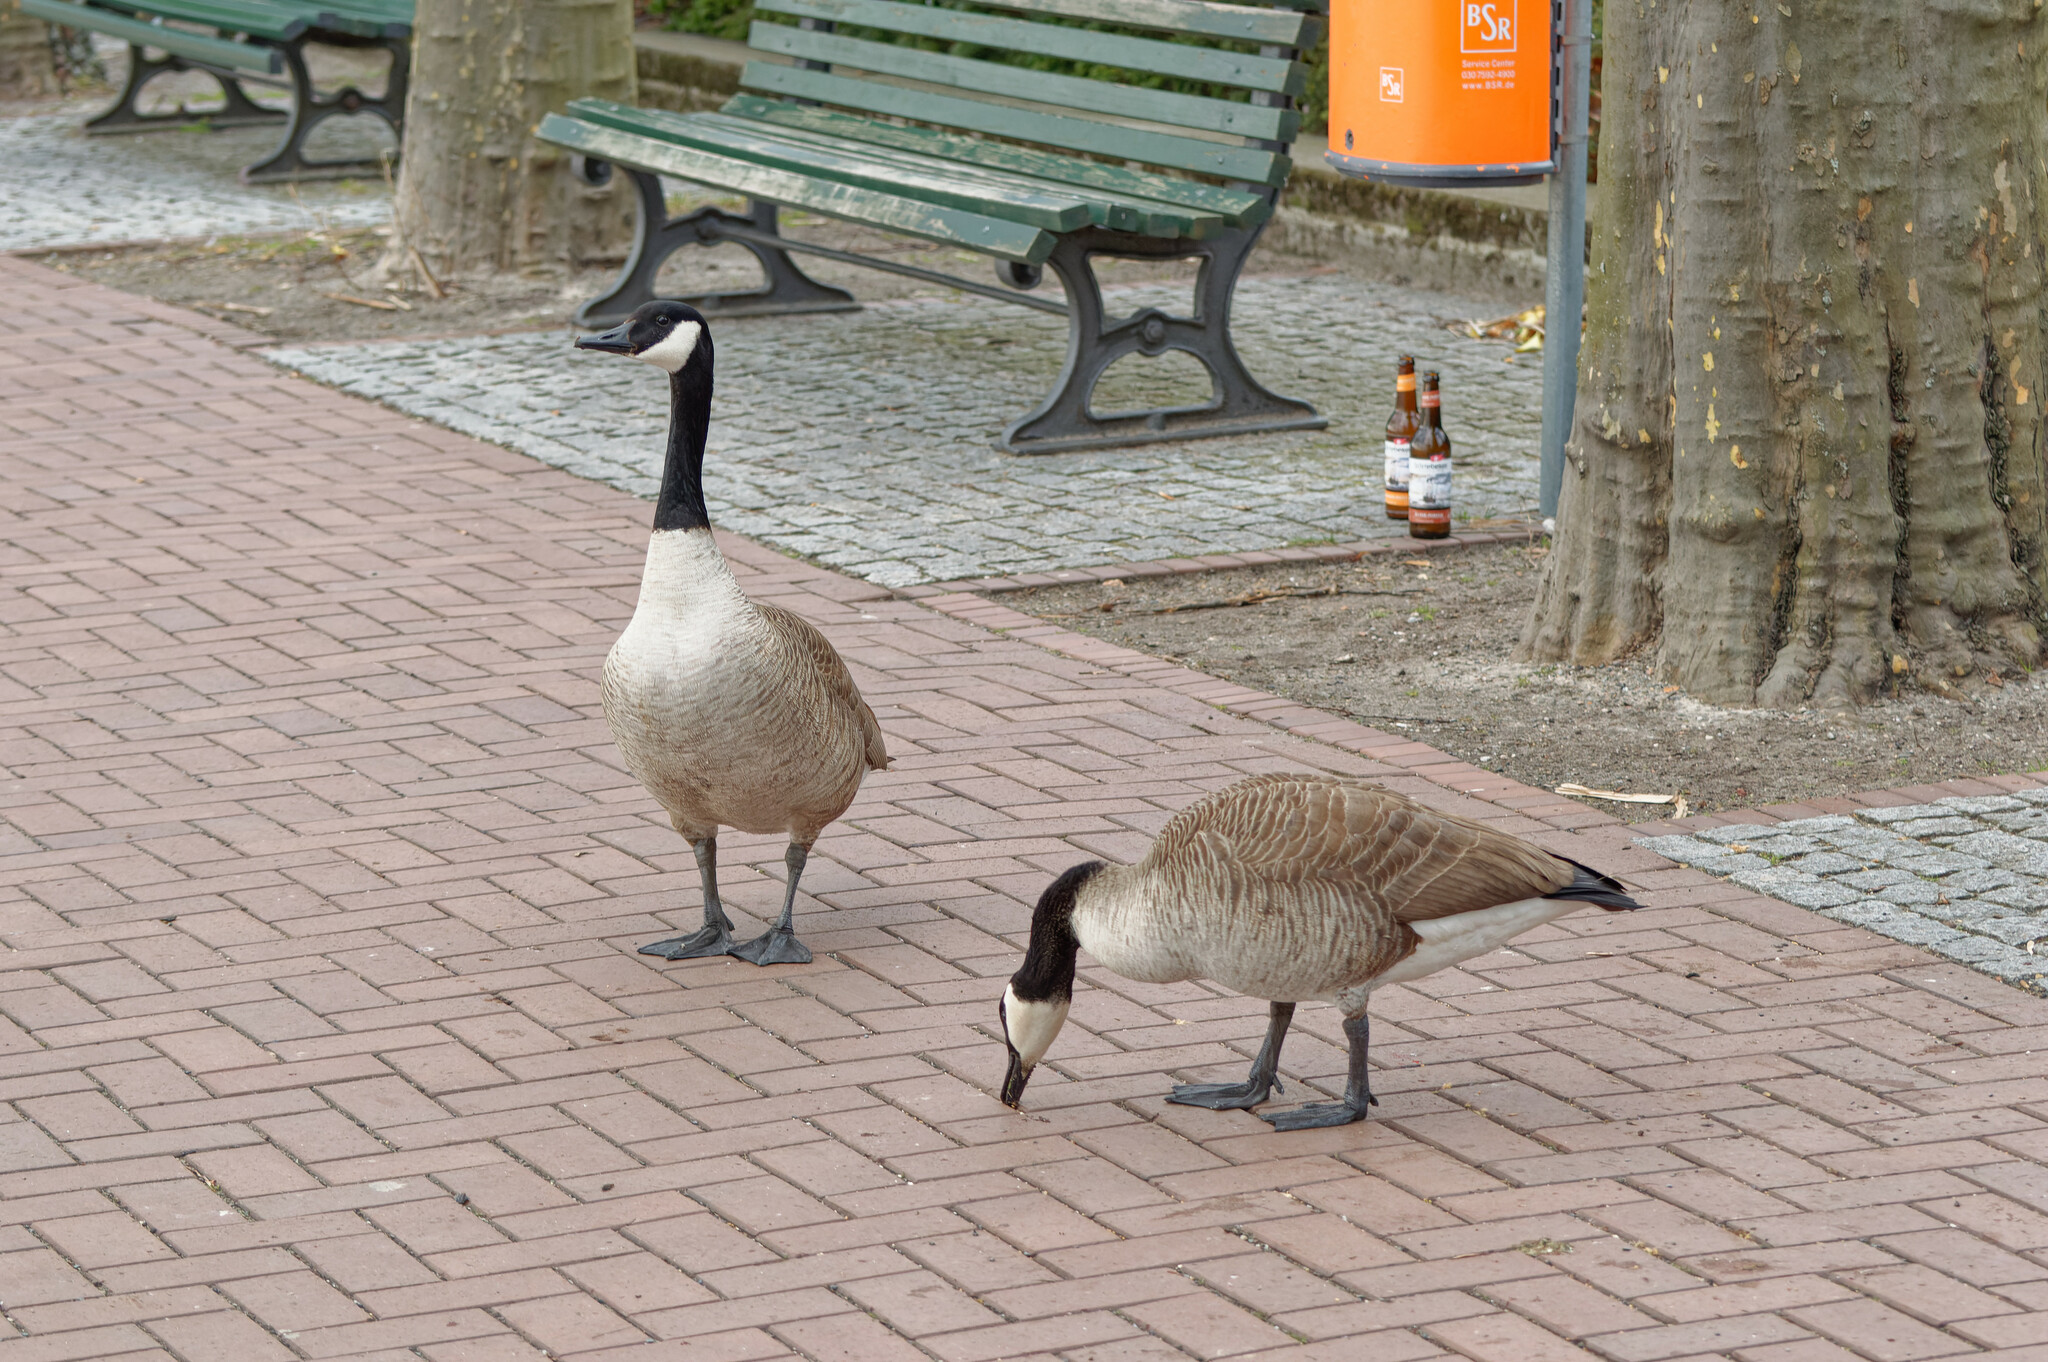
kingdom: Animalia
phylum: Chordata
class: Aves
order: Anseriformes
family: Anatidae
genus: Branta
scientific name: Branta canadensis
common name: Canada goose
